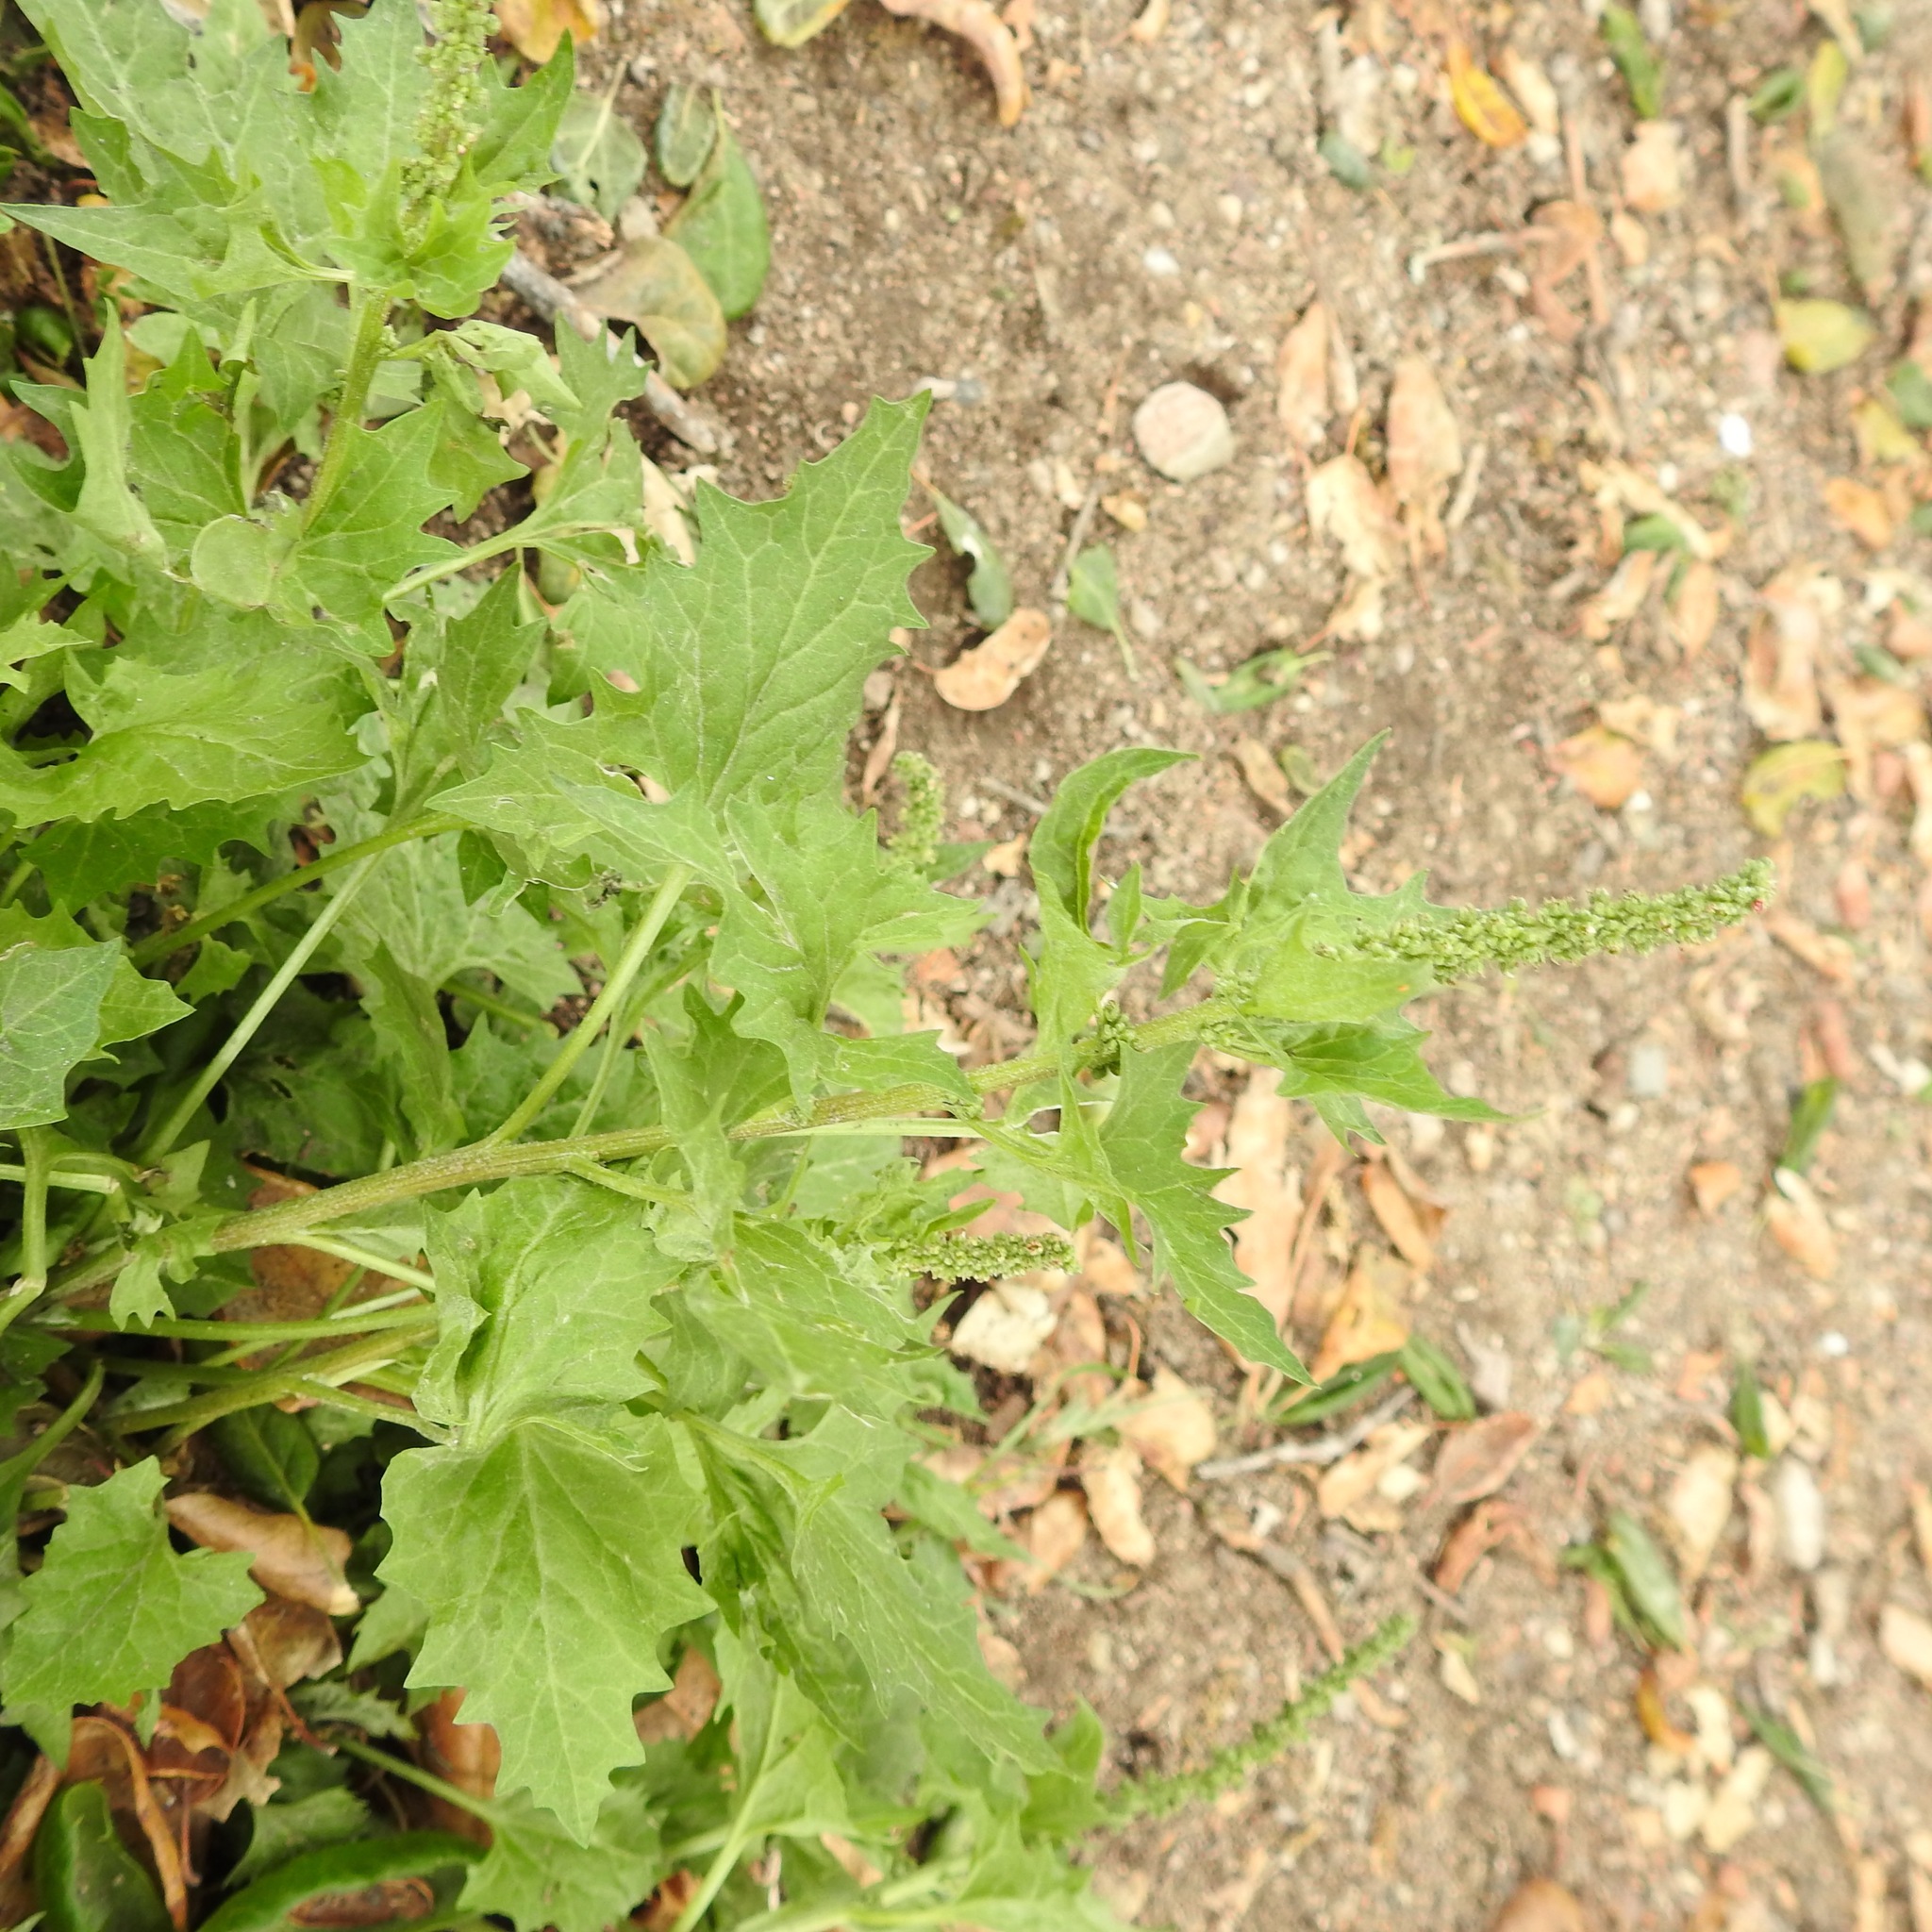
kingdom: Plantae
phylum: Tracheophyta
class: Magnoliopsida
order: Caryophyllales
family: Amaranthaceae
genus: Blitum
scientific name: Blitum californicum
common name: California goosefoot
